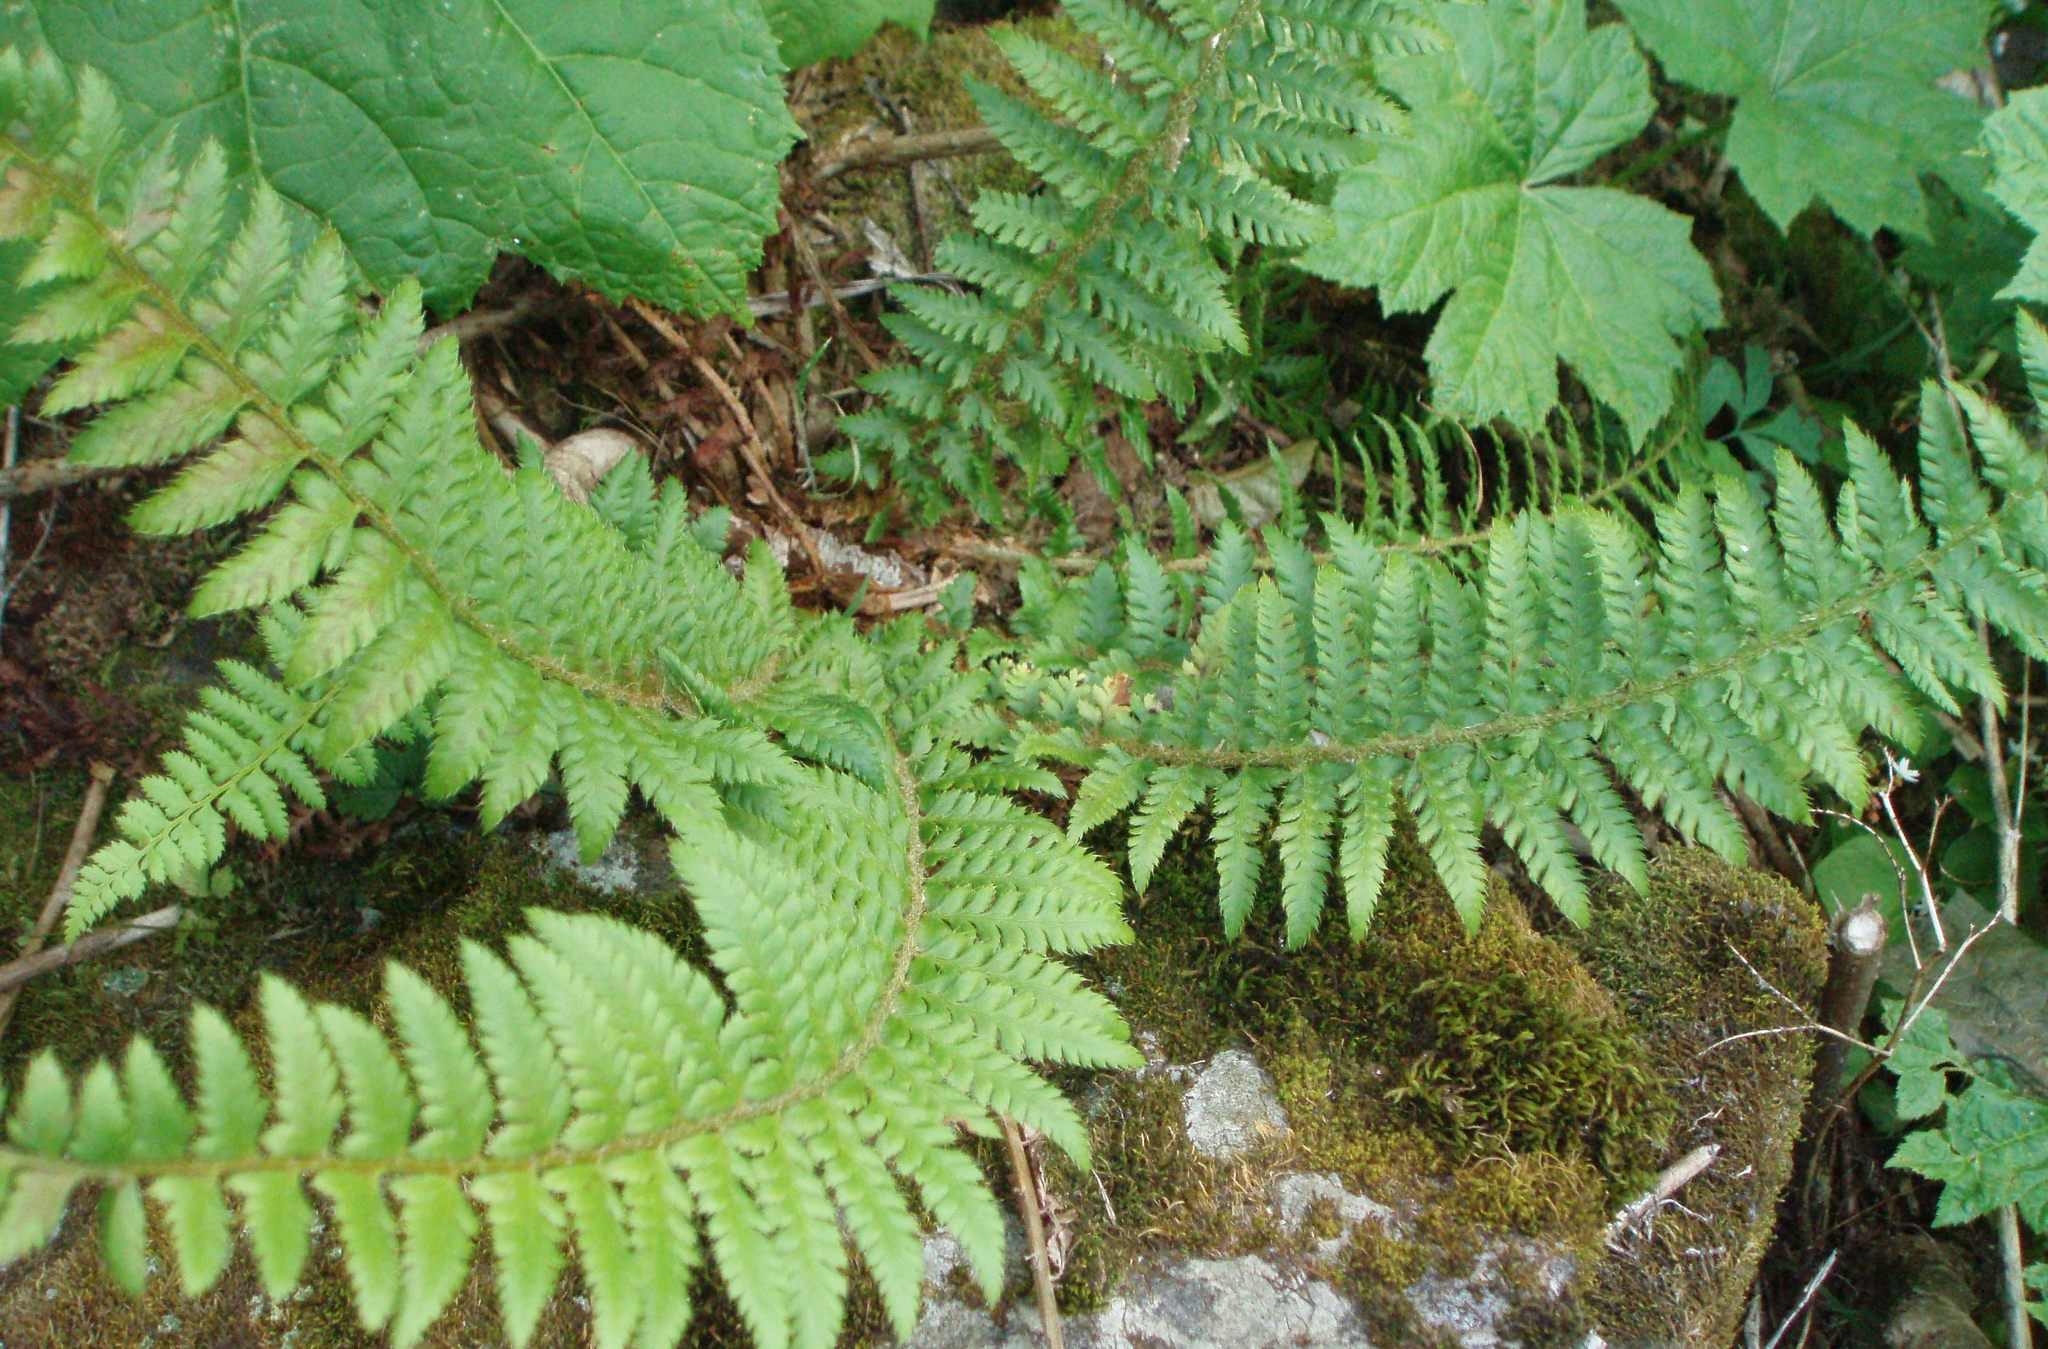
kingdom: Plantae
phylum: Tracheophyta
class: Polypodiopsida
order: Polypodiales
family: Dryopteridaceae
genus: Polystichum
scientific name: Polystichum andersonii
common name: Anderson's holly fern
